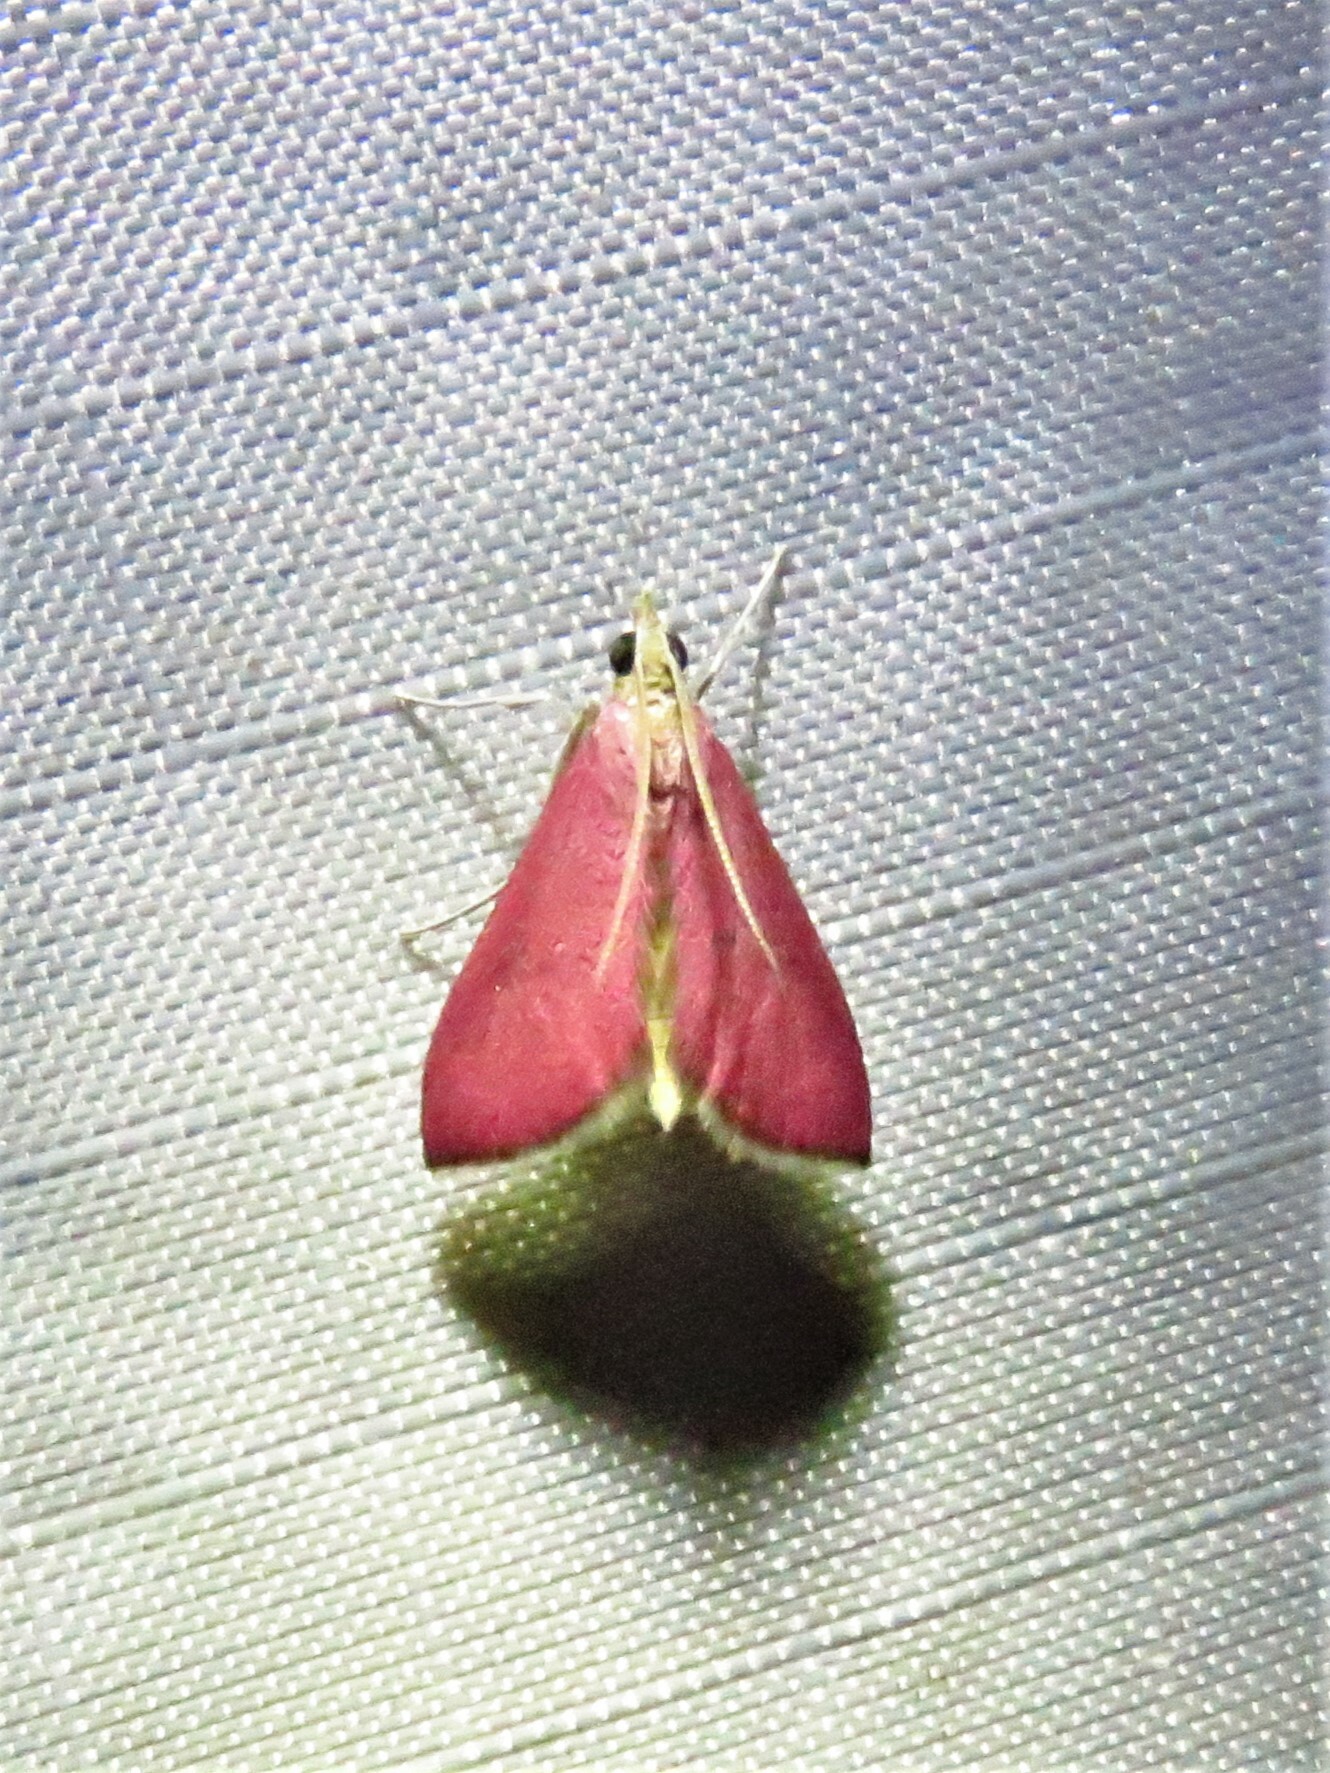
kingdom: Animalia
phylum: Arthropoda
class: Insecta
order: Lepidoptera
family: Crambidae
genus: Pyrausta
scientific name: Pyrausta inornatalis
